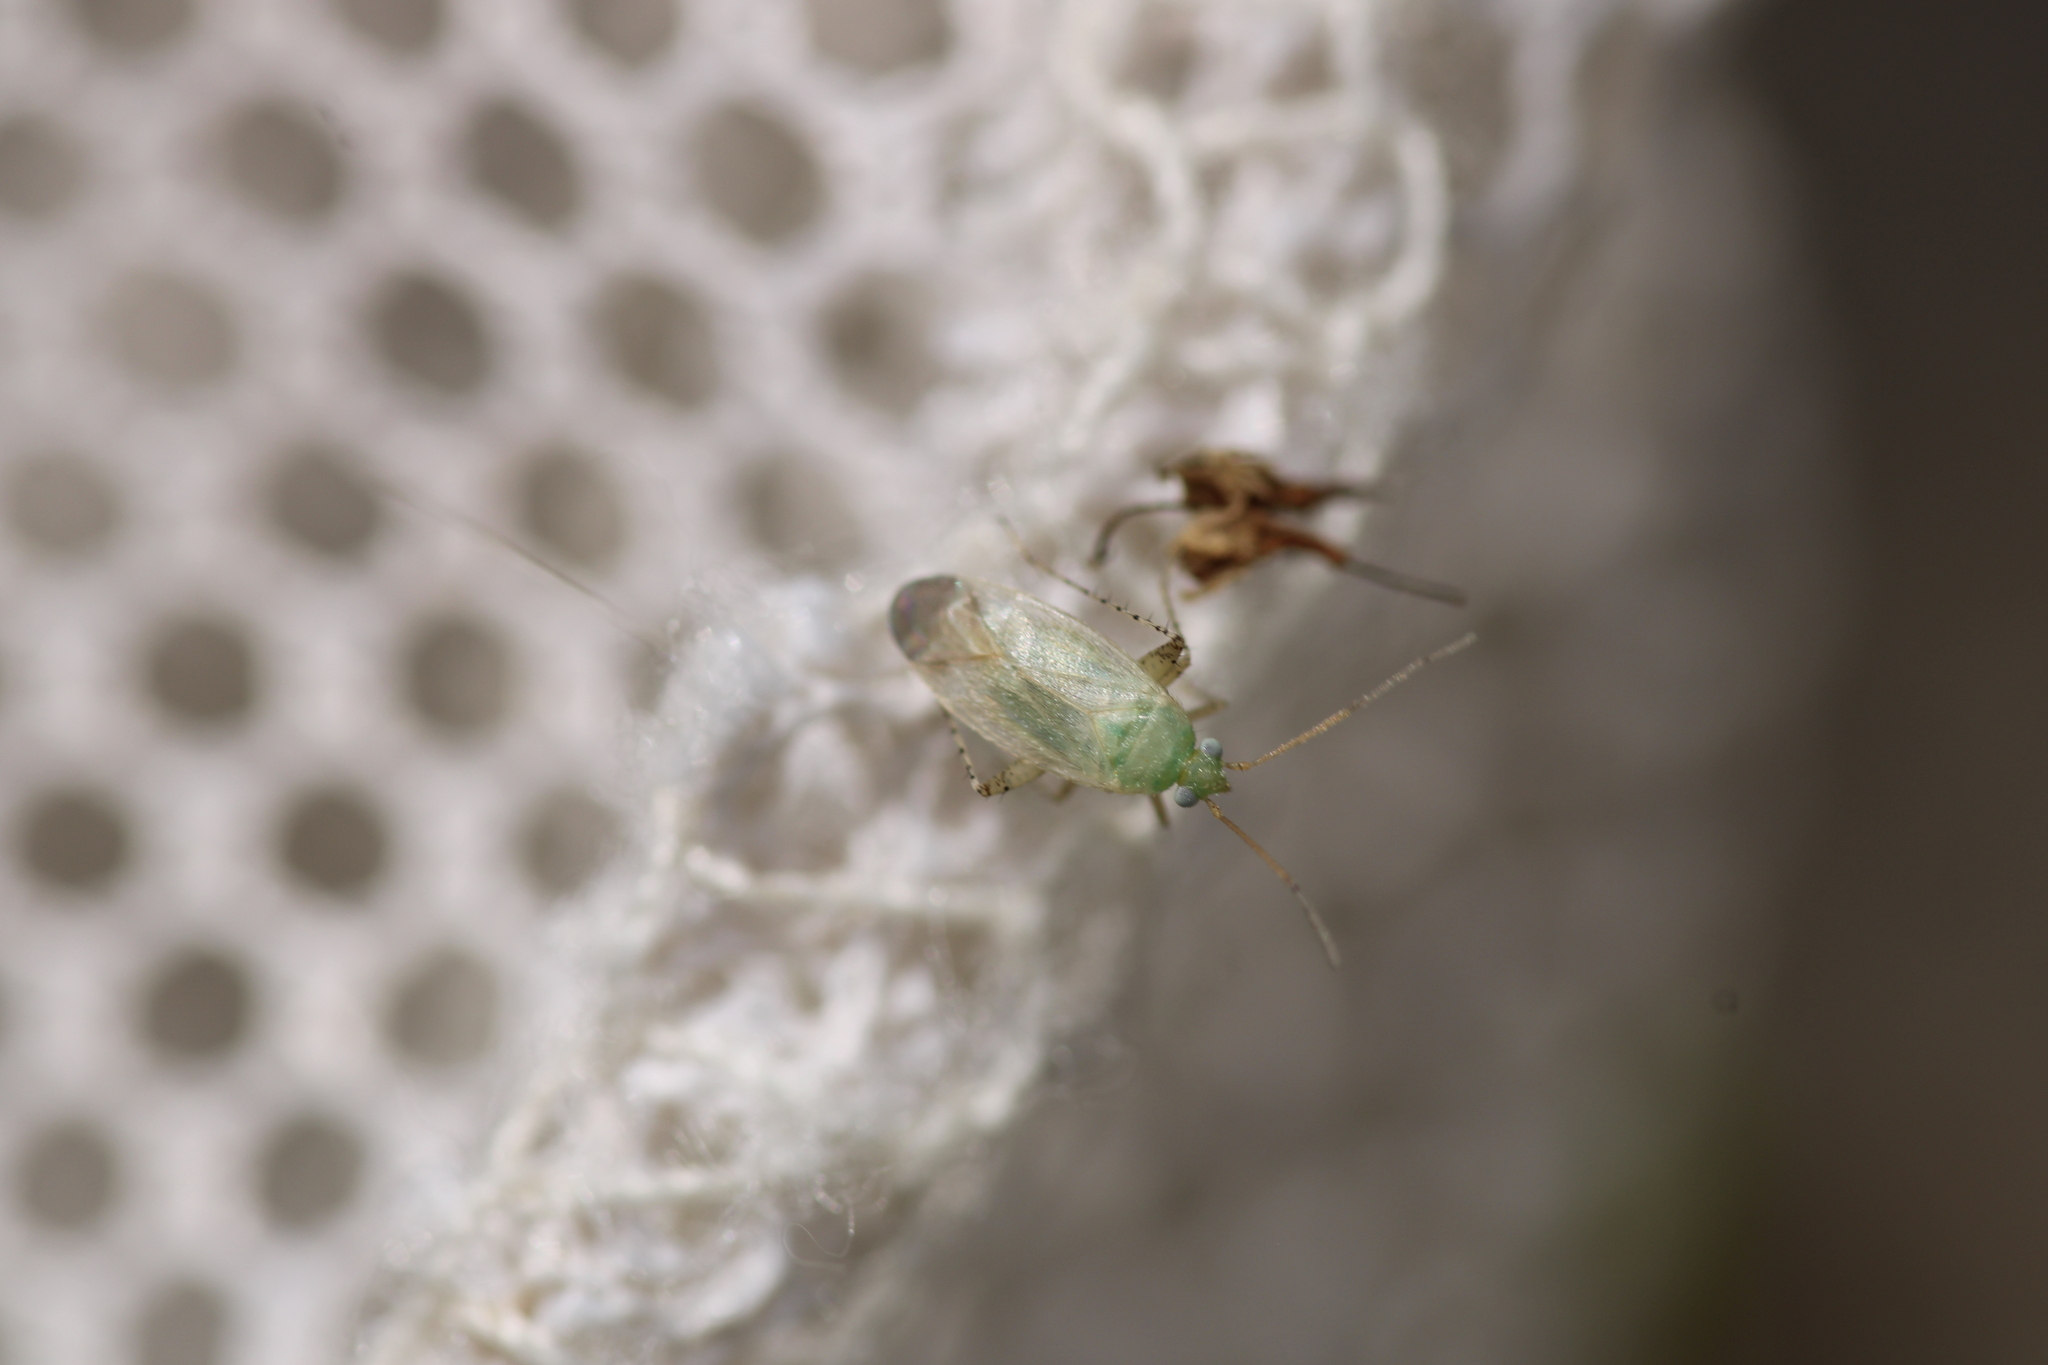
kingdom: Animalia
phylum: Arthropoda
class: Insecta
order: Hemiptera
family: Miridae
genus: Europiella
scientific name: Europiella alpina
